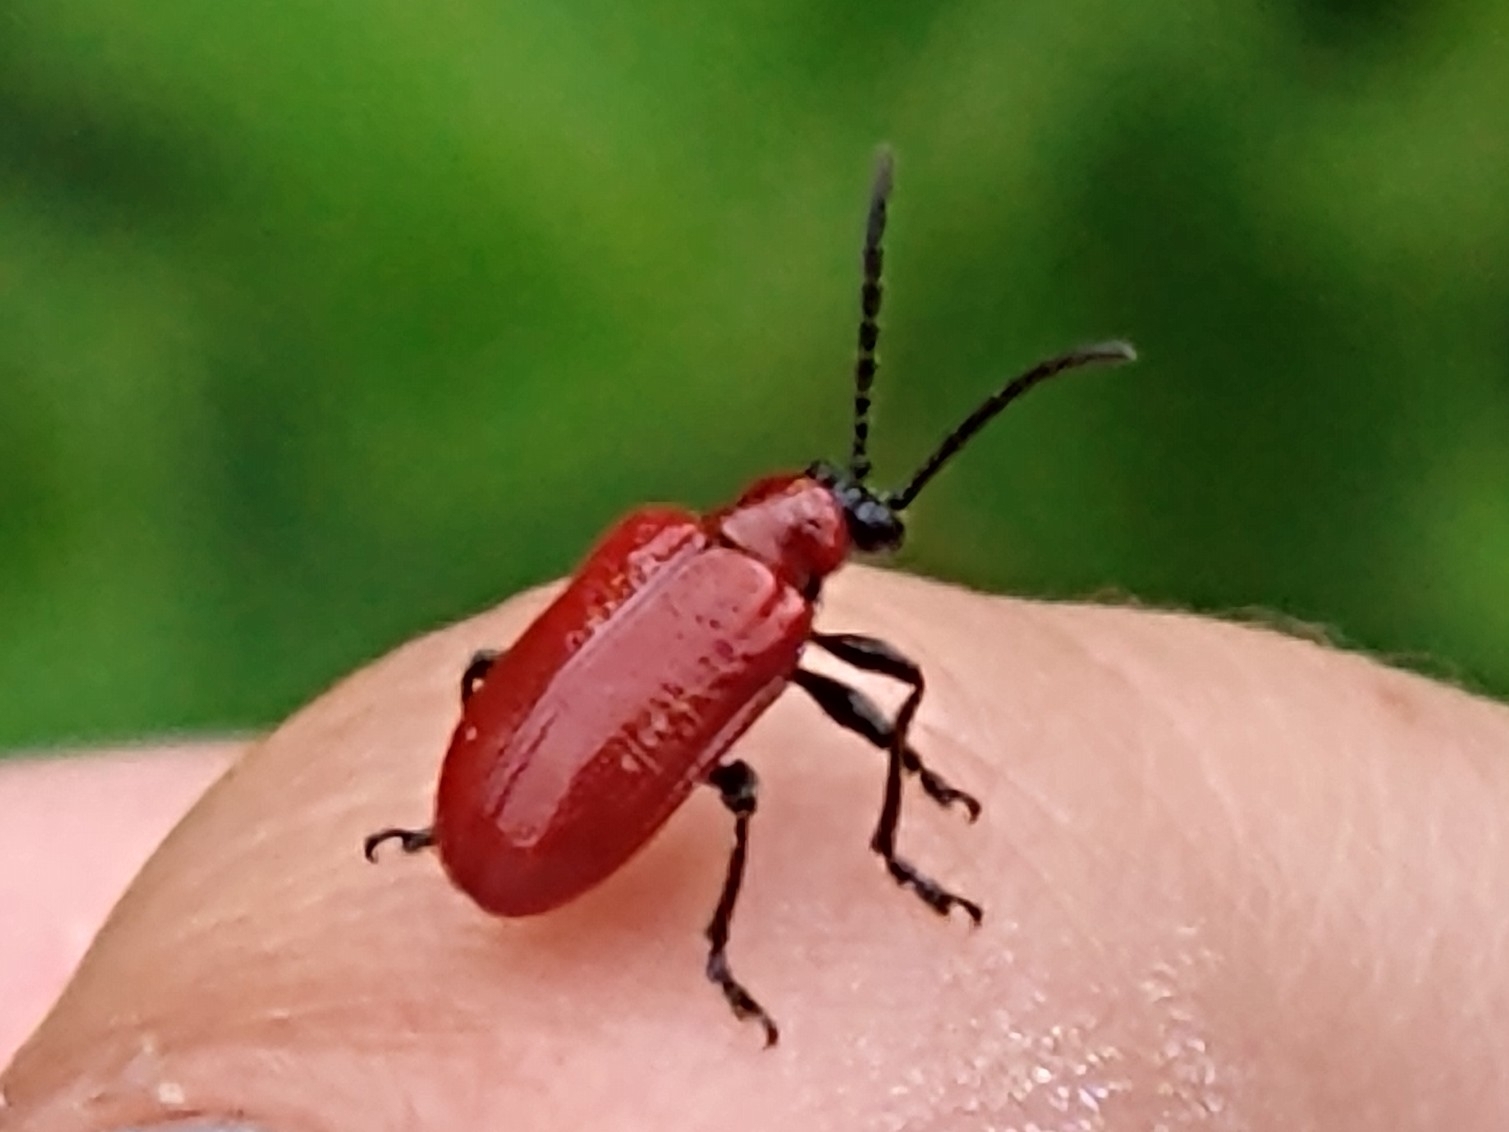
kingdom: Animalia
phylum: Arthropoda
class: Insecta
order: Coleoptera
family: Chrysomelidae
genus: Lilioceris
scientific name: Lilioceris lilii
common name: Lily beetle
